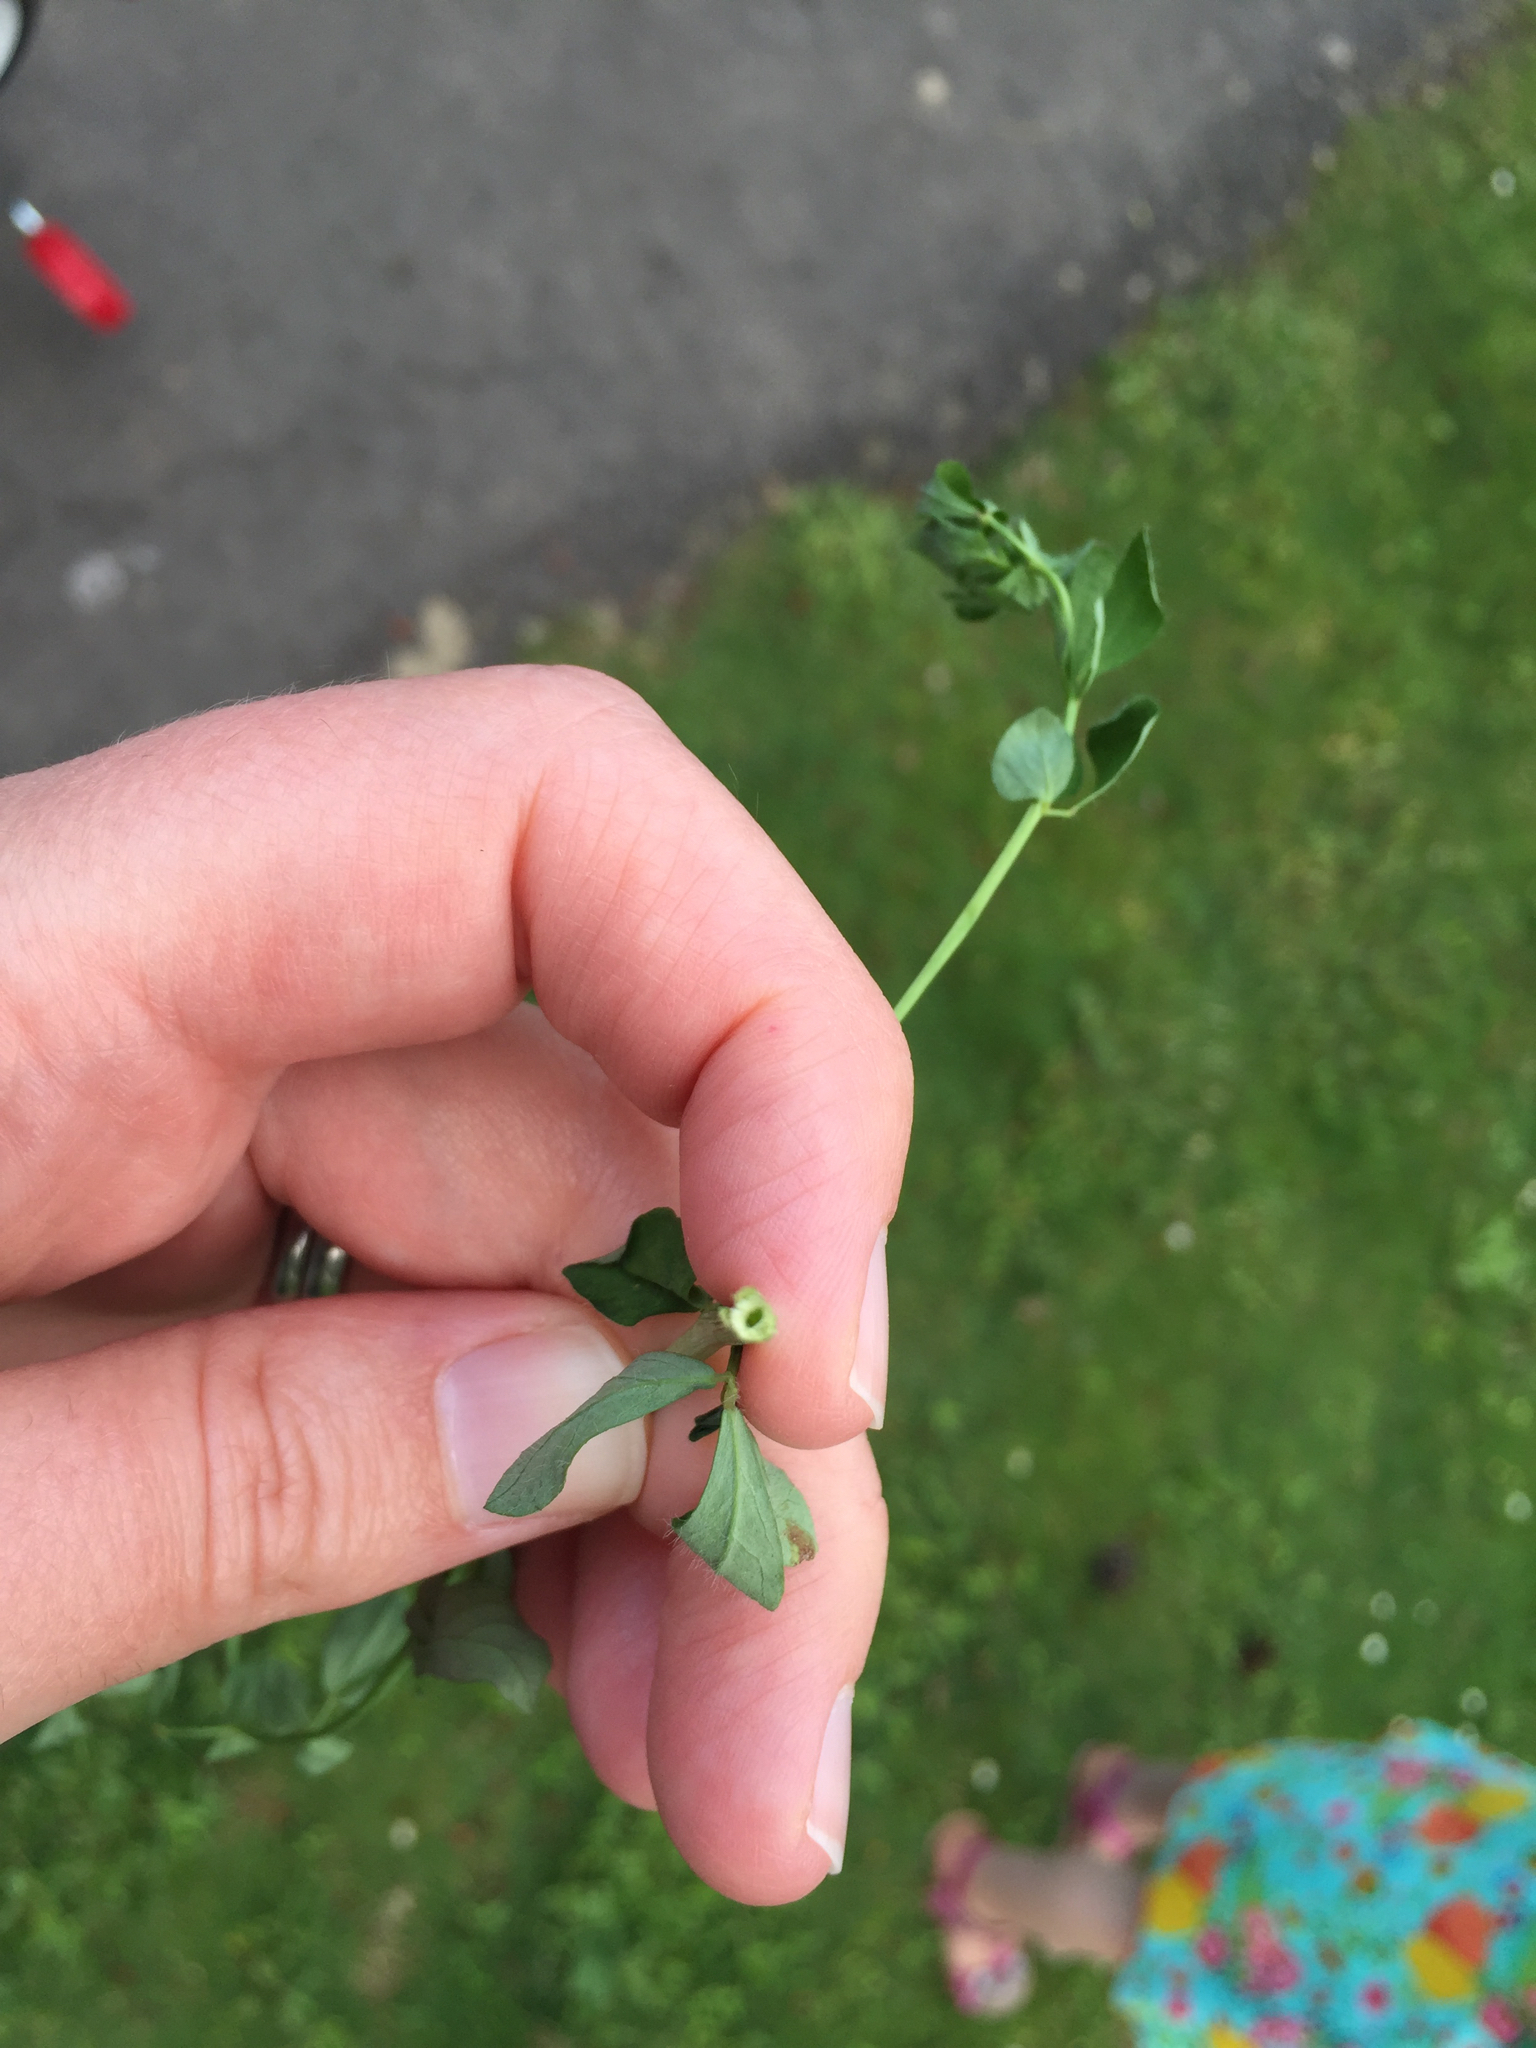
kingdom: Plantae
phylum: Tracheophyta
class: Magnoliopsida
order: Fabales
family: Fabaceae
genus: Lotus
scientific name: Lotus pedunculatus
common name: Greater birdsfoot-trefoil
